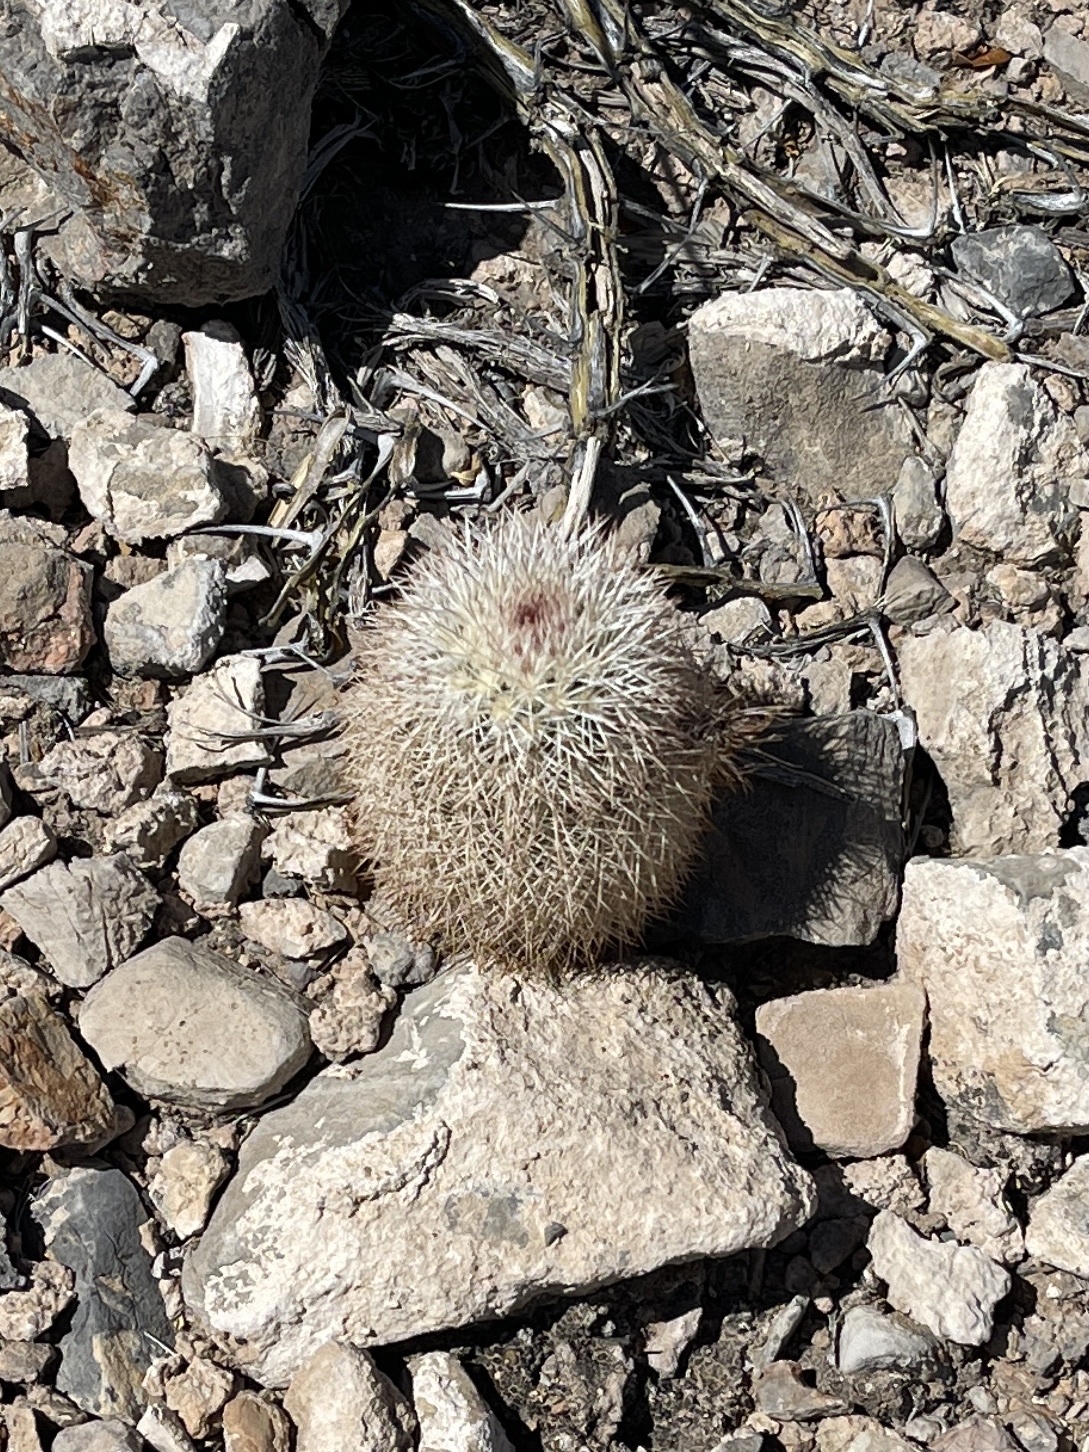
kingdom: Plantae
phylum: Tracheophyta
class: Magnoliopsida
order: Caryophyllales
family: Cactaceae
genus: Echinocereus
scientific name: Echinocereus dasyacanthus
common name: Spiny hedgehog cactus
